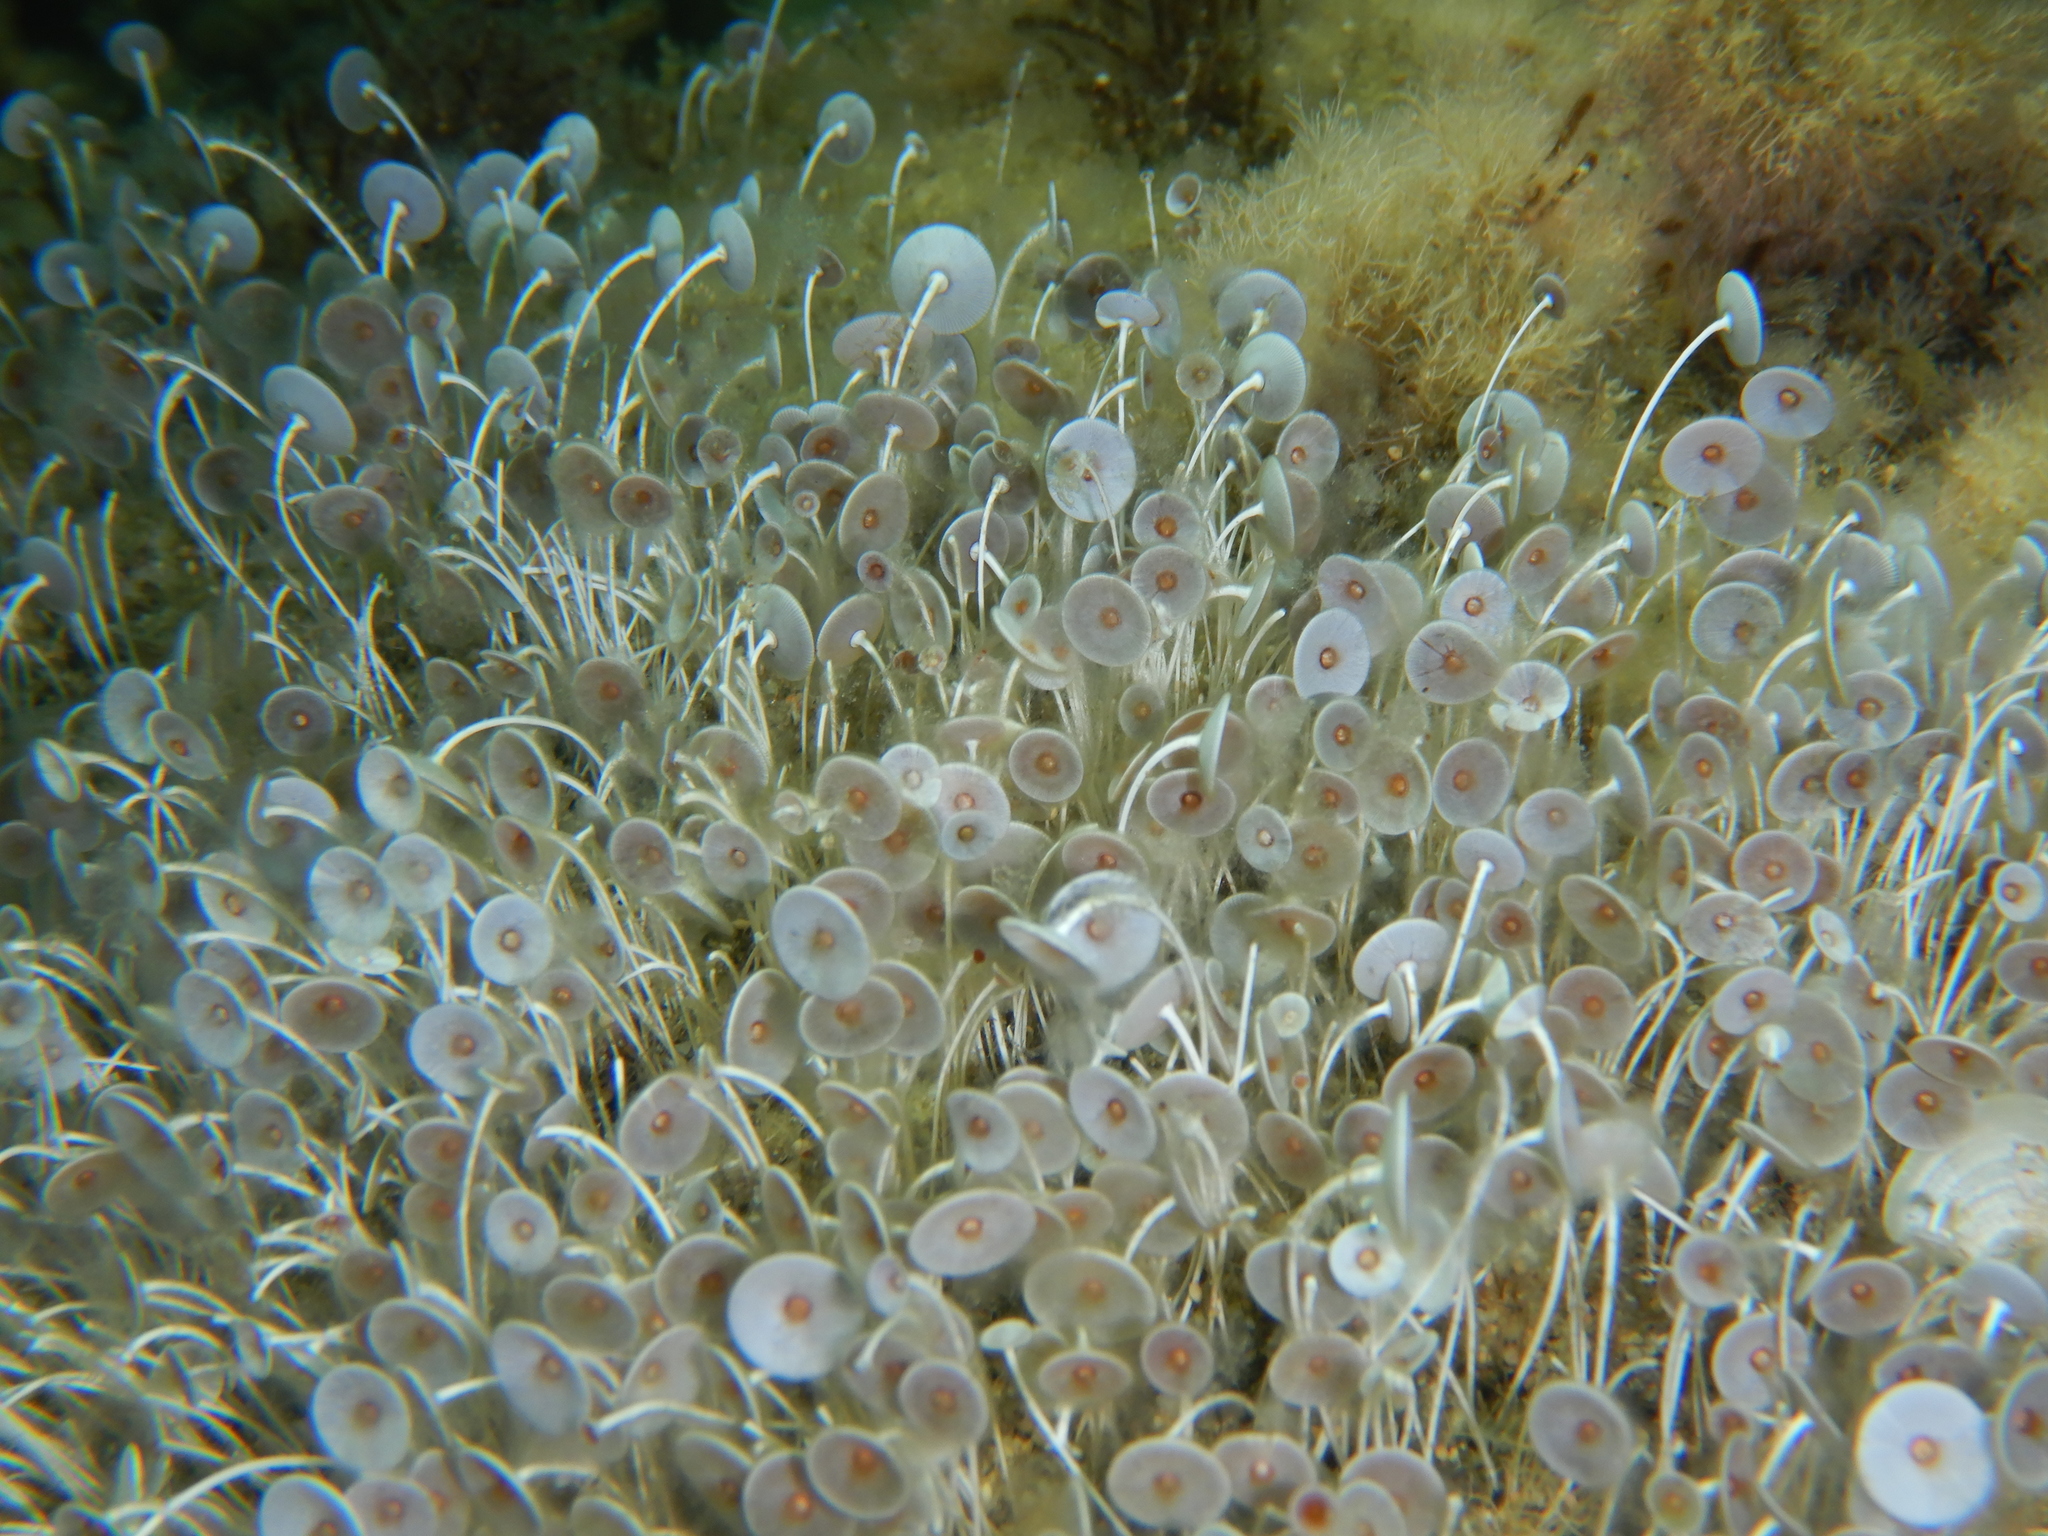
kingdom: Plantae
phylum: Chlorophyta
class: Ulvophyceae
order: Dasycladales
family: Polyphysaceae
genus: Acetabularia
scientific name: Acetabularia acetabulum
